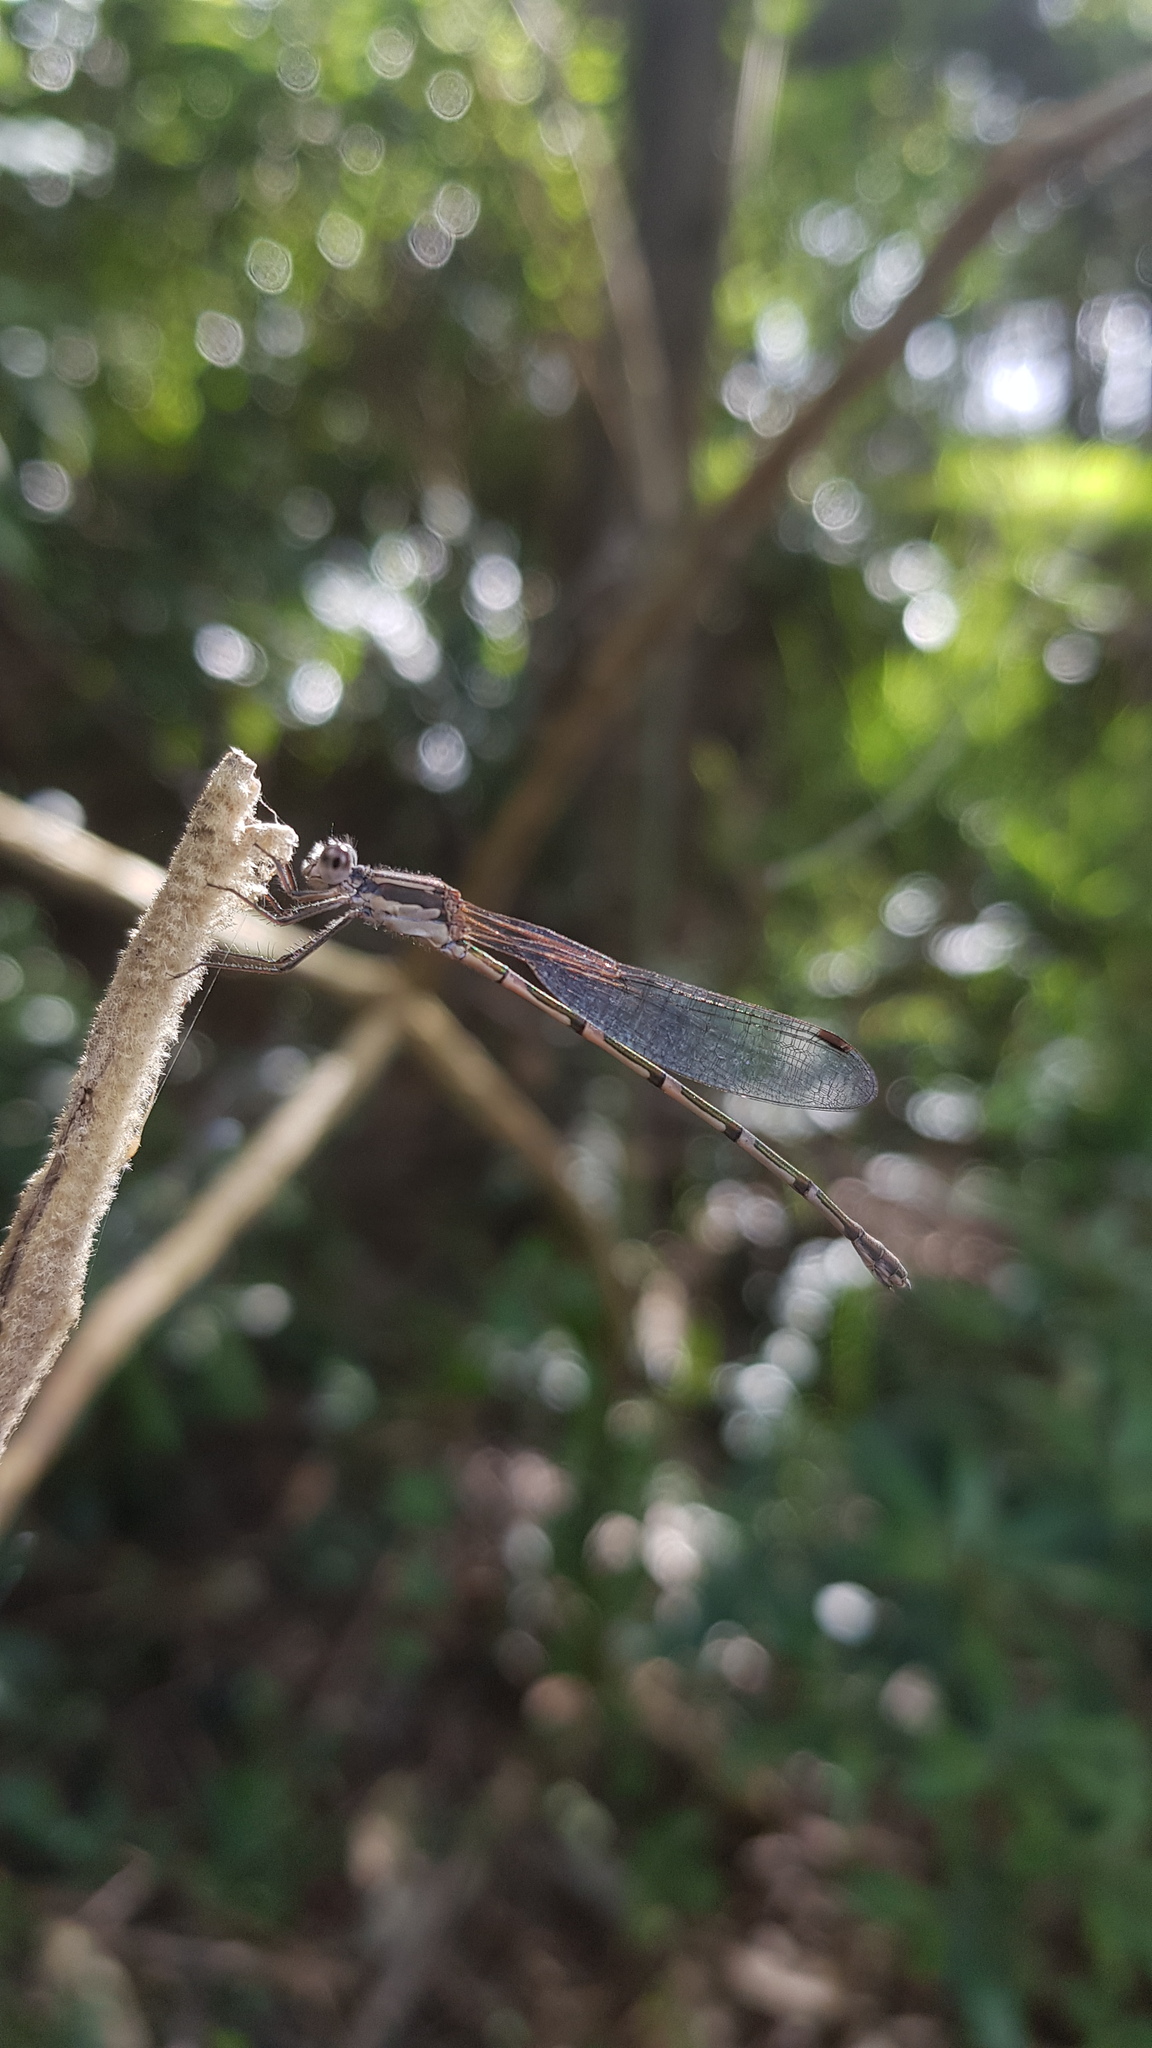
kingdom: Animalia
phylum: Arthropoda
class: Insecta
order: Odonata
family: Lestidae
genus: Austrolestes
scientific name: Austrolestes leda
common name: Wandering ringtail
